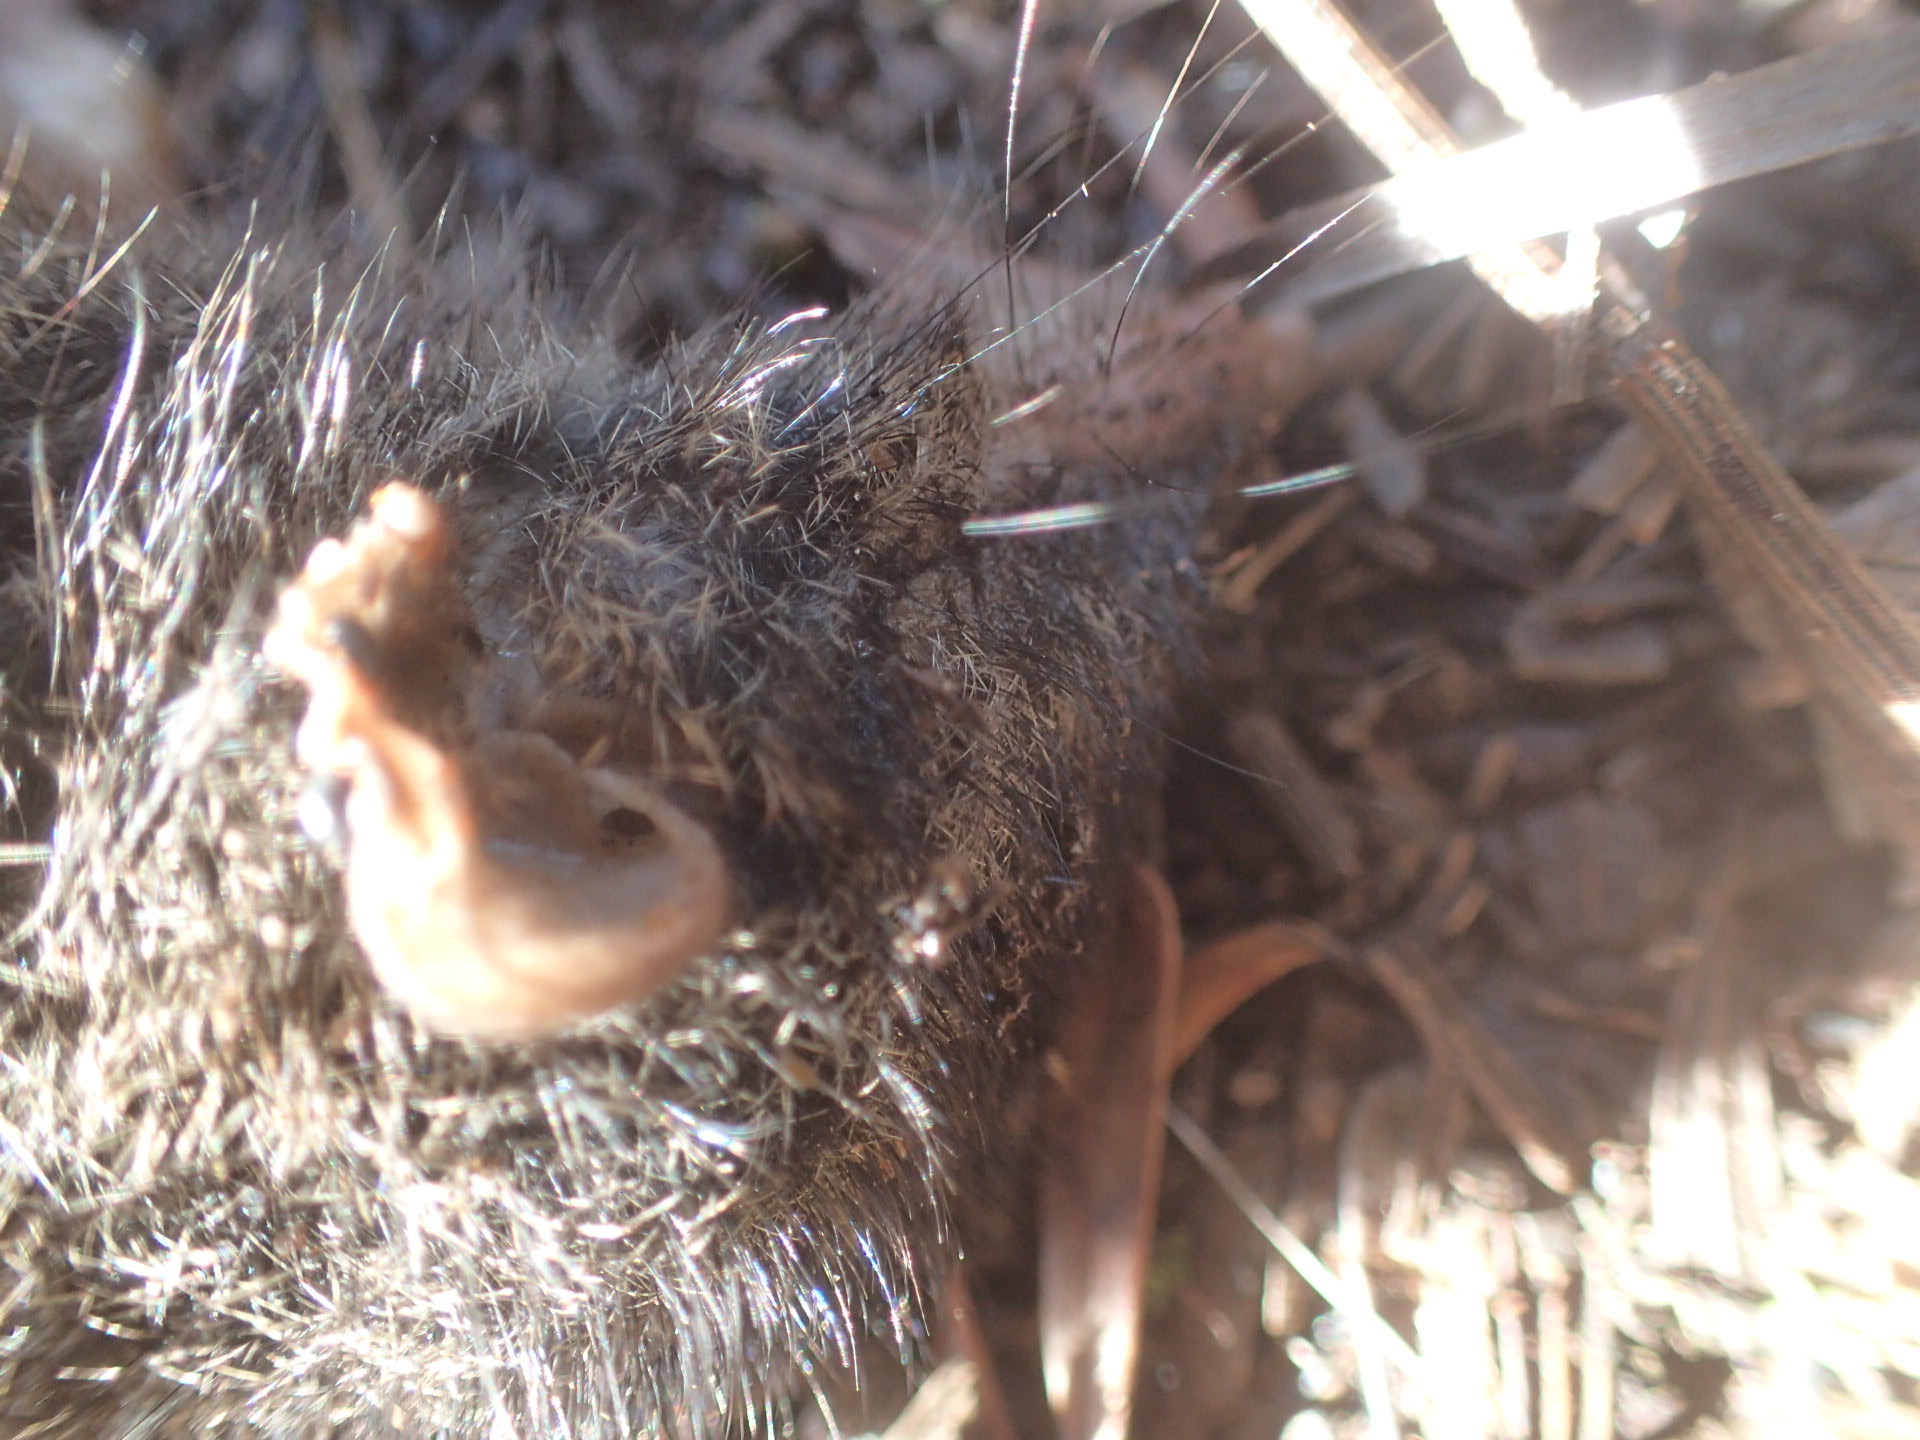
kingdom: Animalia
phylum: Chordata
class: Mammalia
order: Dasyuromorphia
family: Dasyuridae
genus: Antechinus
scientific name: Antechinus minimus
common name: Swamp antechinus
